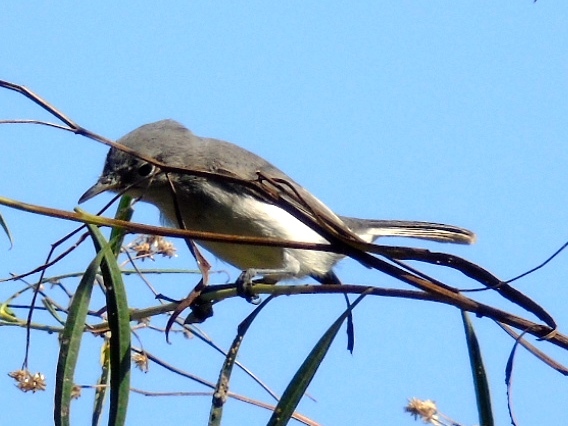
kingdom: Animalia
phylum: Chordata
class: Aves
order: Passeriformes
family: Polioptilidae
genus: Polioptila
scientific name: Polioptila caerulea
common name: Blue-gray gnatcatcher
